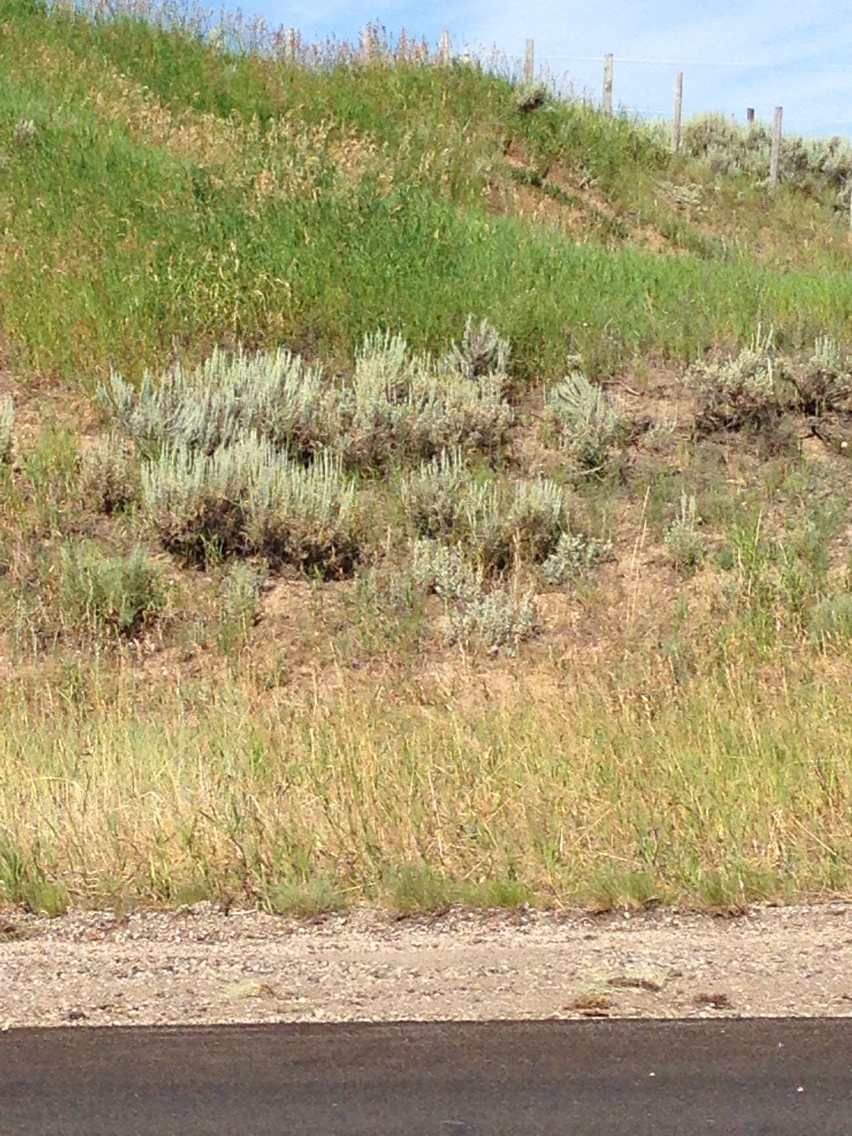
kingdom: Plantae
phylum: Tracheophyta
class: Magnoliopsida
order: Asterales
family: Asteraceae
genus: Artemisia
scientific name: Artemisia tridentata
